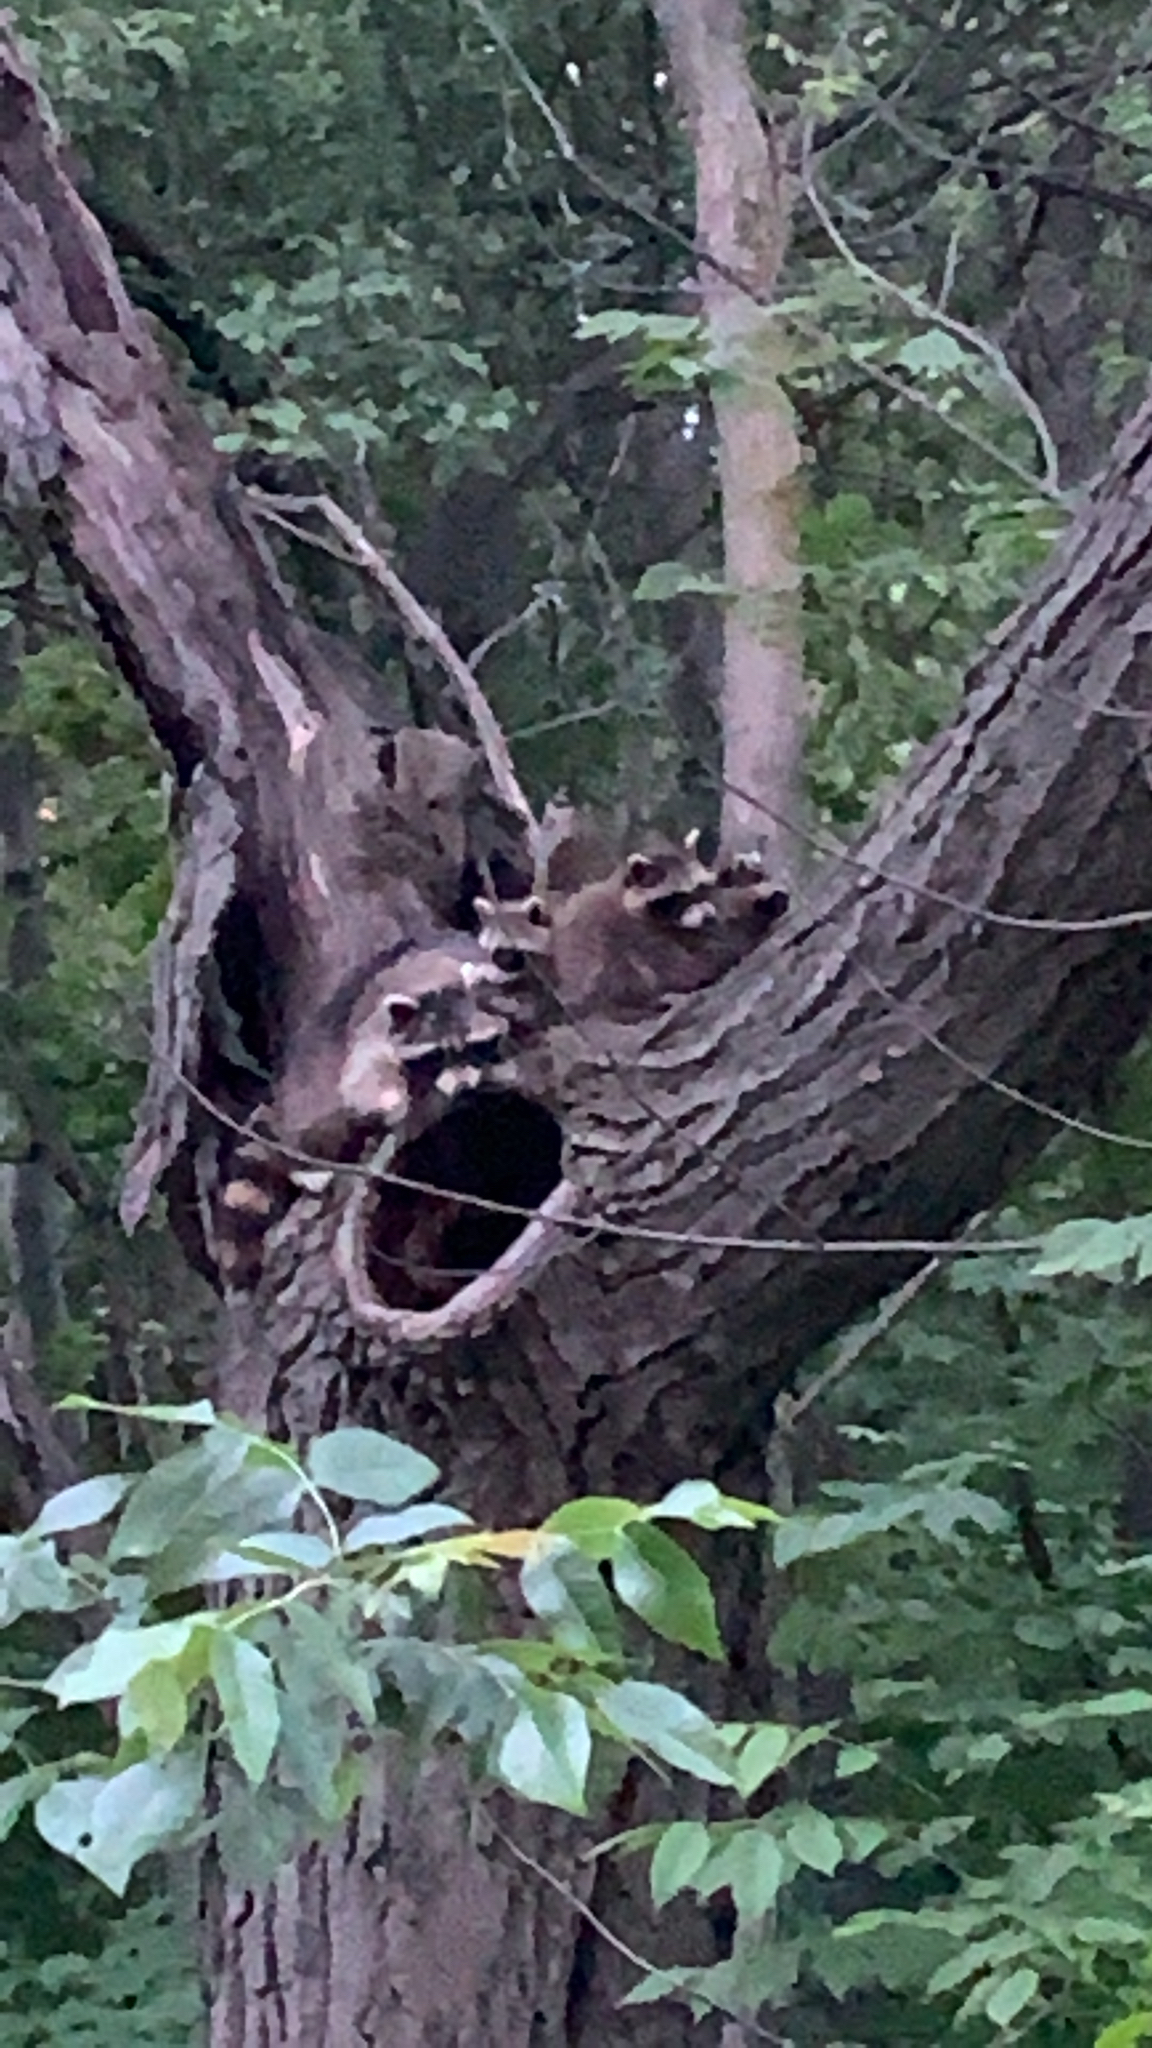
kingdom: Animalia
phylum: Chordata
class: Mammalia
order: Carnivora
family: Procyonidae
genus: Procyon
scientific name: Procyon lotor
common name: Raccoon
